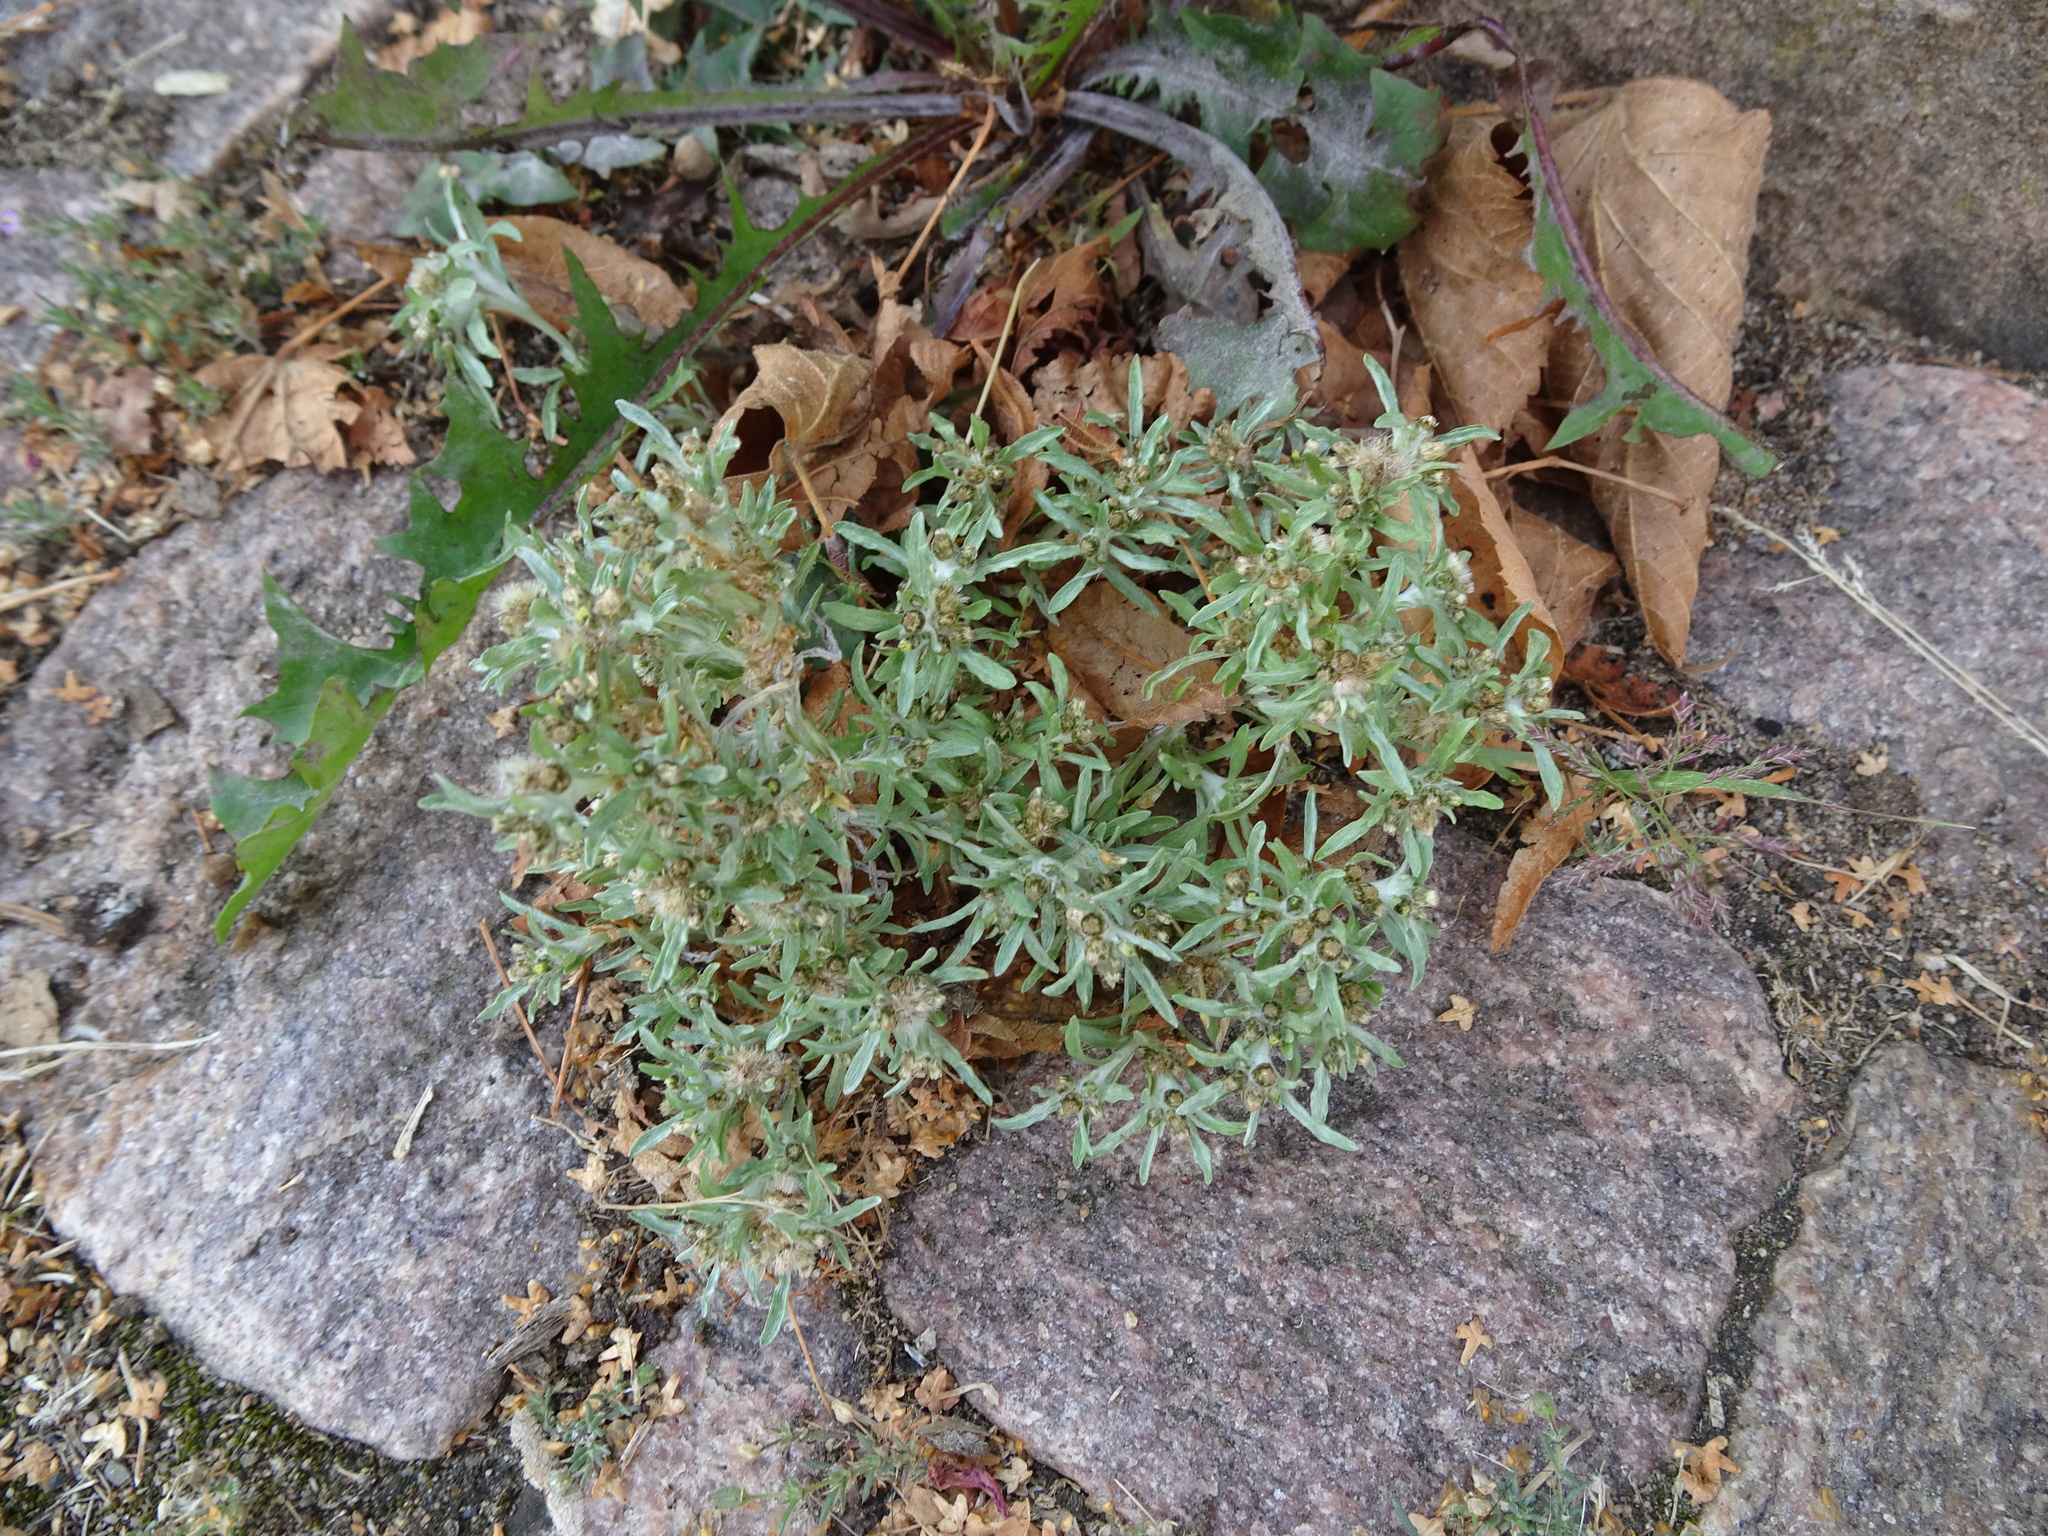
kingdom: Plantae
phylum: Tracheophyta
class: Magnoliopsida
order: Asterales
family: Asteraceae
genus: Gnaphalium
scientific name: Gnaphalium uliginosum
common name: Marsh cudweed
